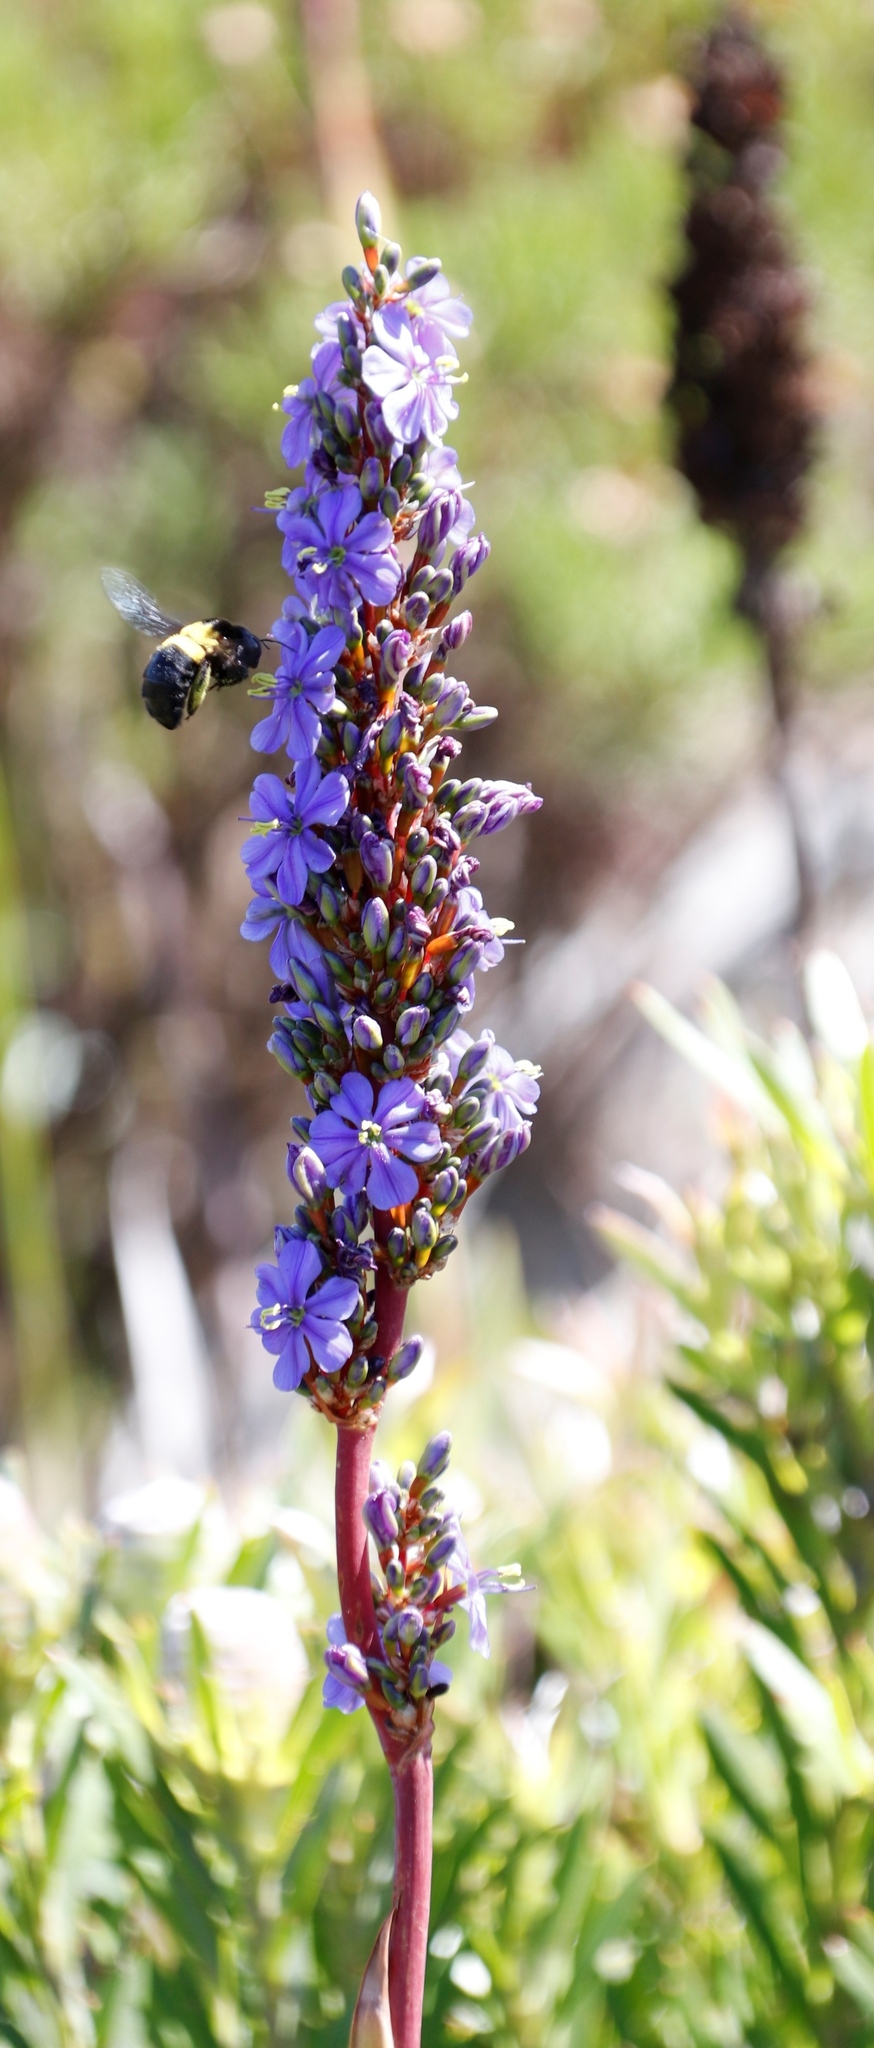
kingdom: Plantae
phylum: Tracheophyta
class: Liliopsida
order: Asparagales
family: Iridaceae
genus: Aristea
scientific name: Aristea capitata
